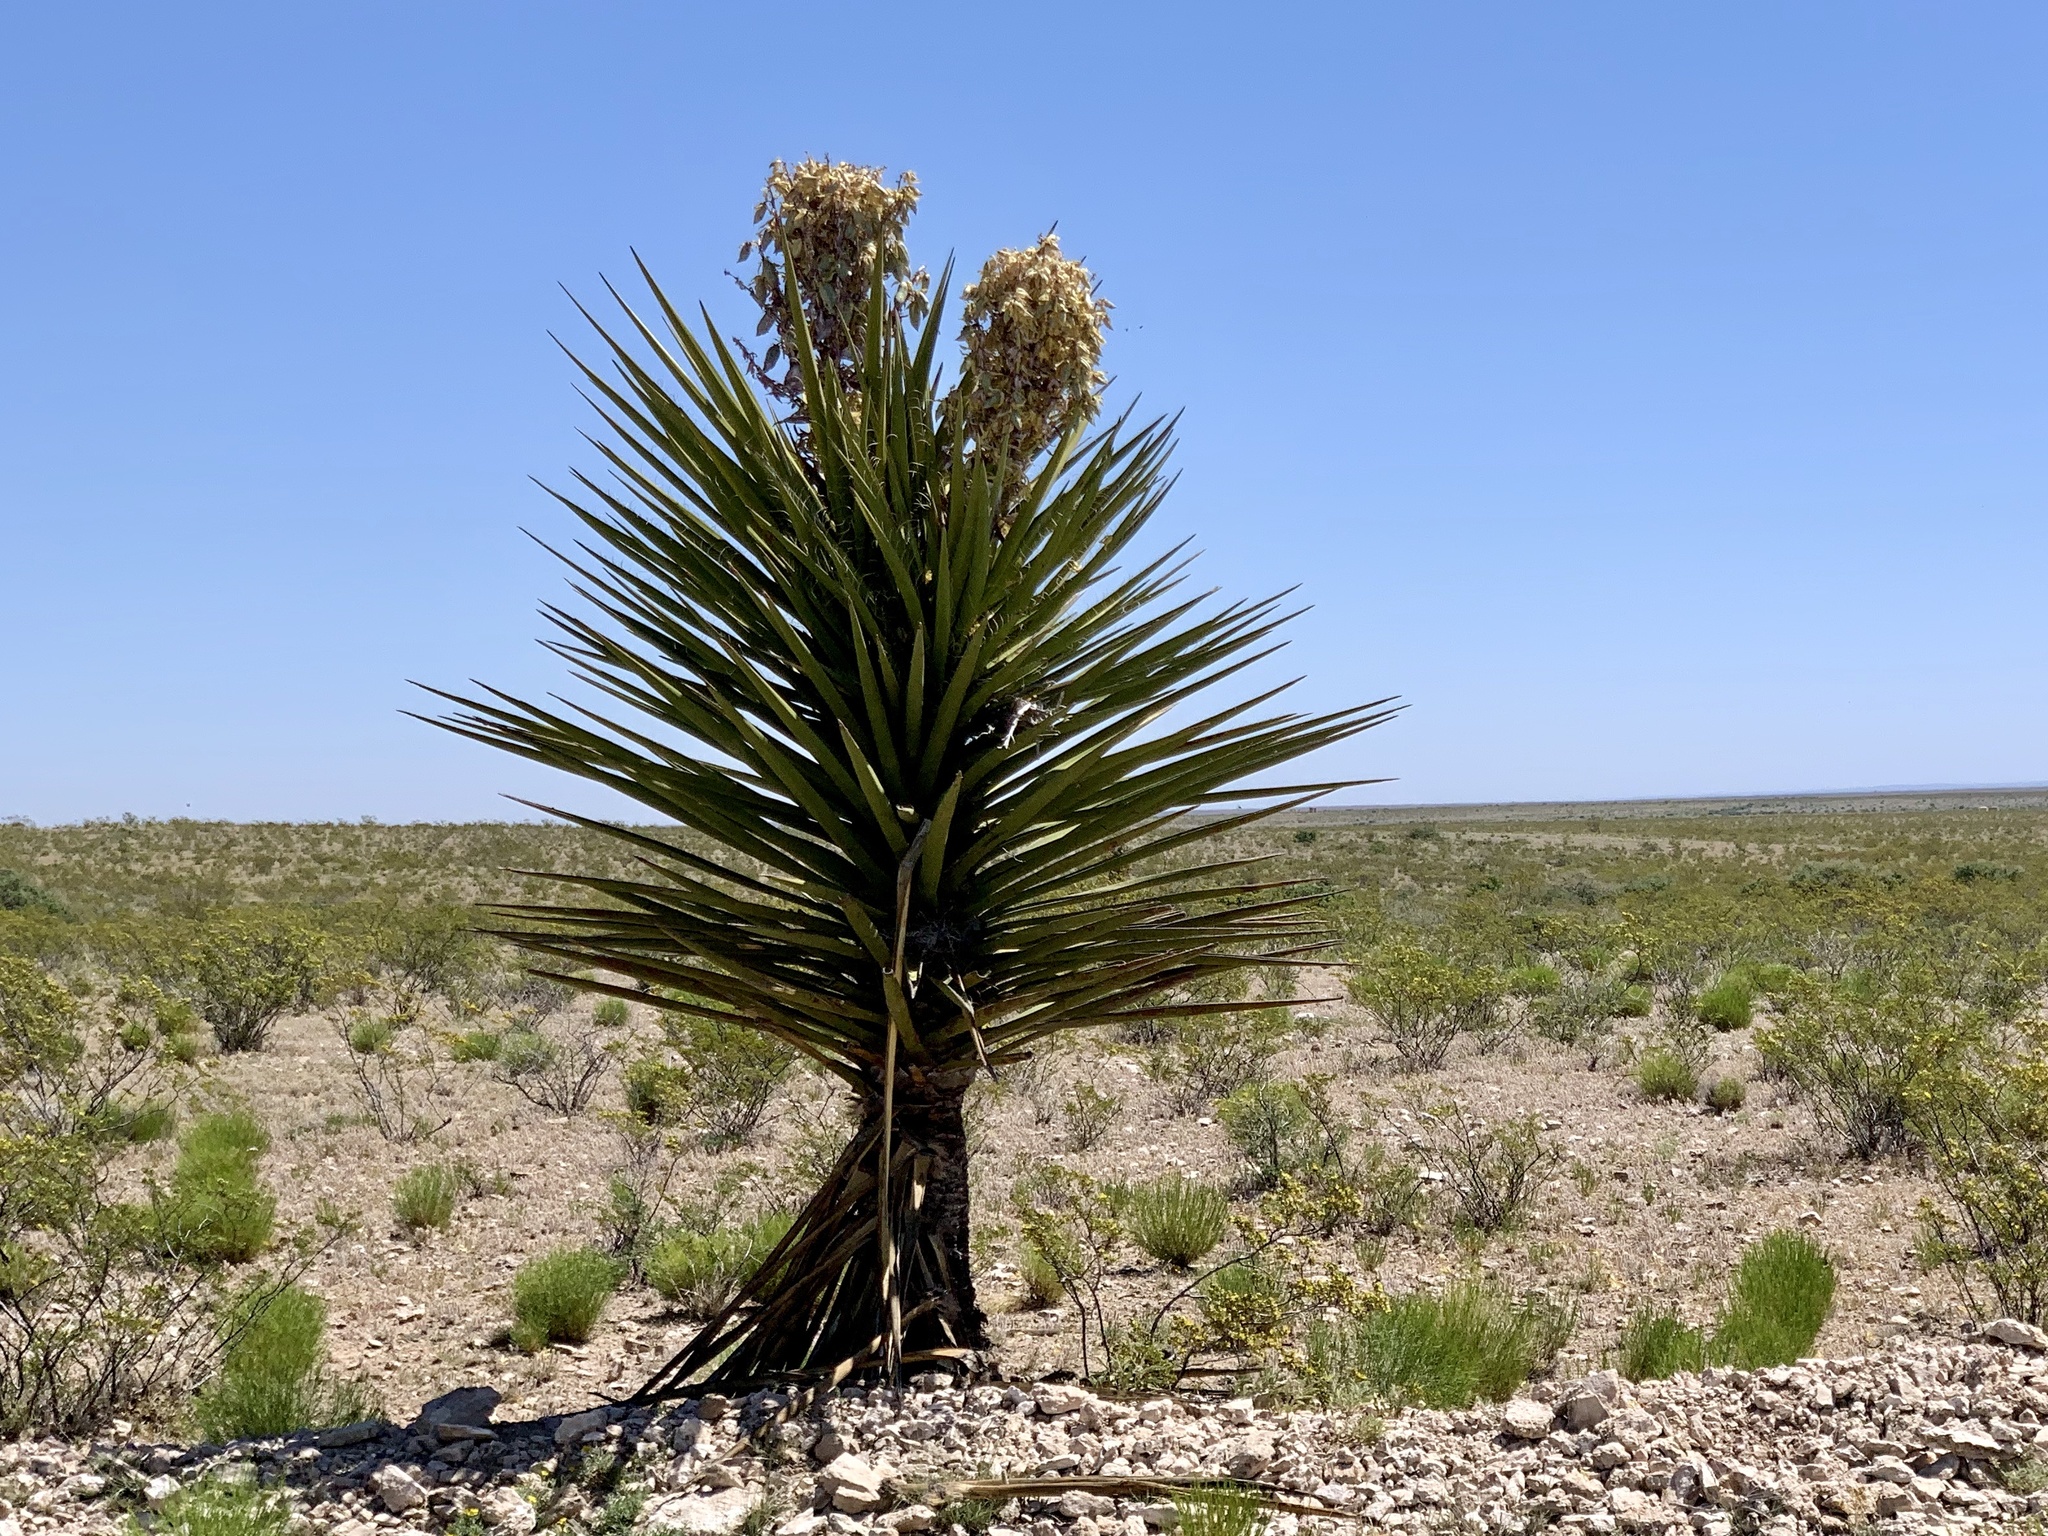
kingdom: Plantae
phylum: Tracheophyta
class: Liliopsida
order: Asparagales
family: Asparagaceae
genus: Yucca
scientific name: Yucca treculiana
